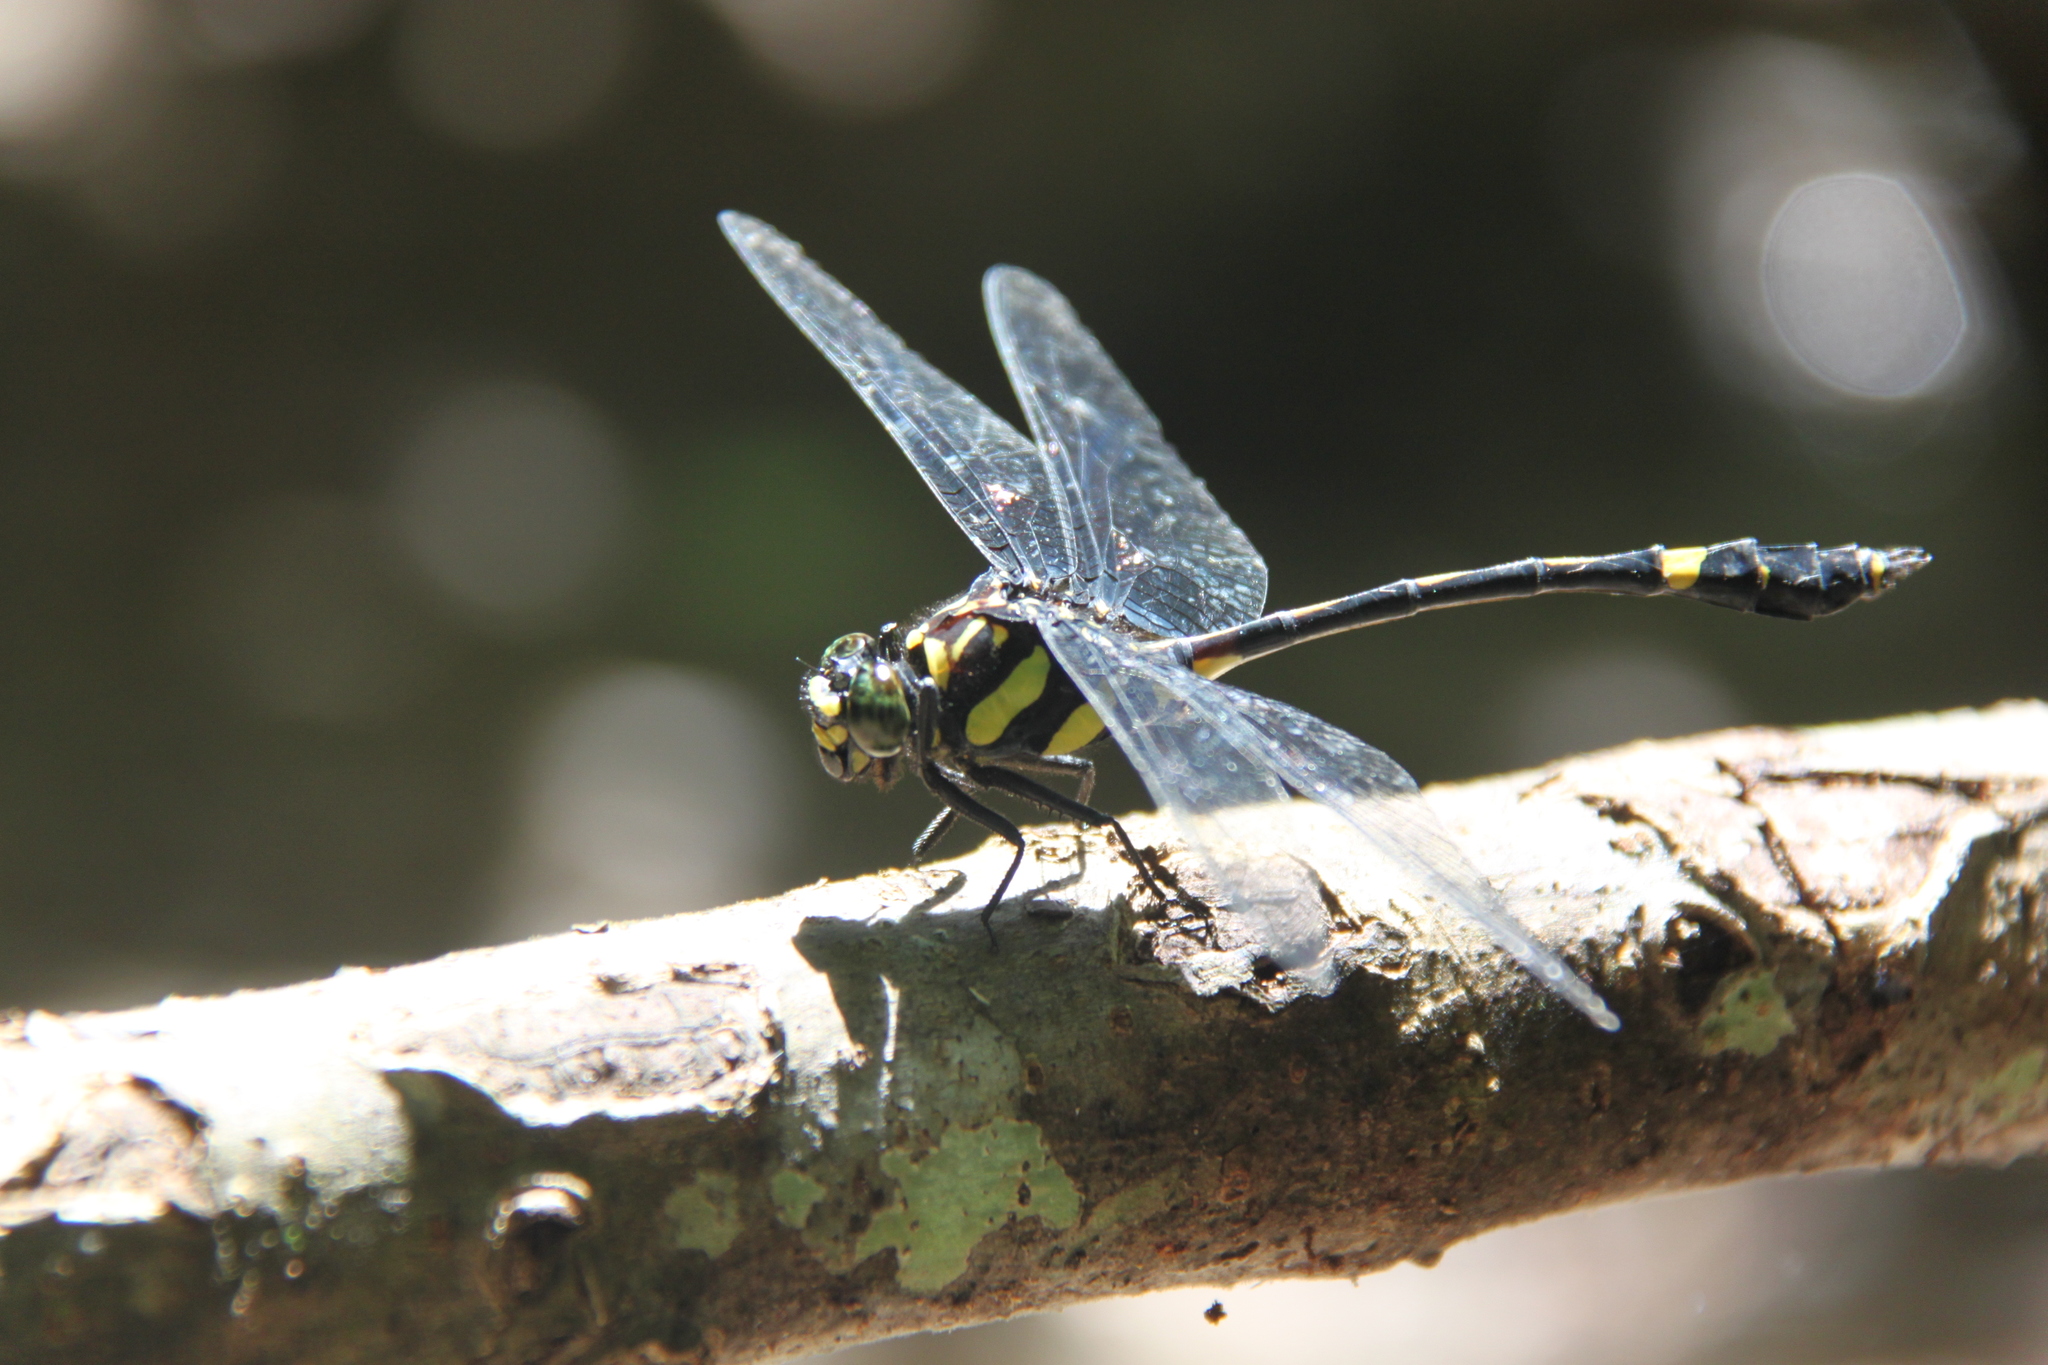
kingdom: Animalia
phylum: Arthropoda
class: Insecta
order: Odonata
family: Gomphidae
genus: Gomphidictinus
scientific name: Gomphidictinus perakensis
